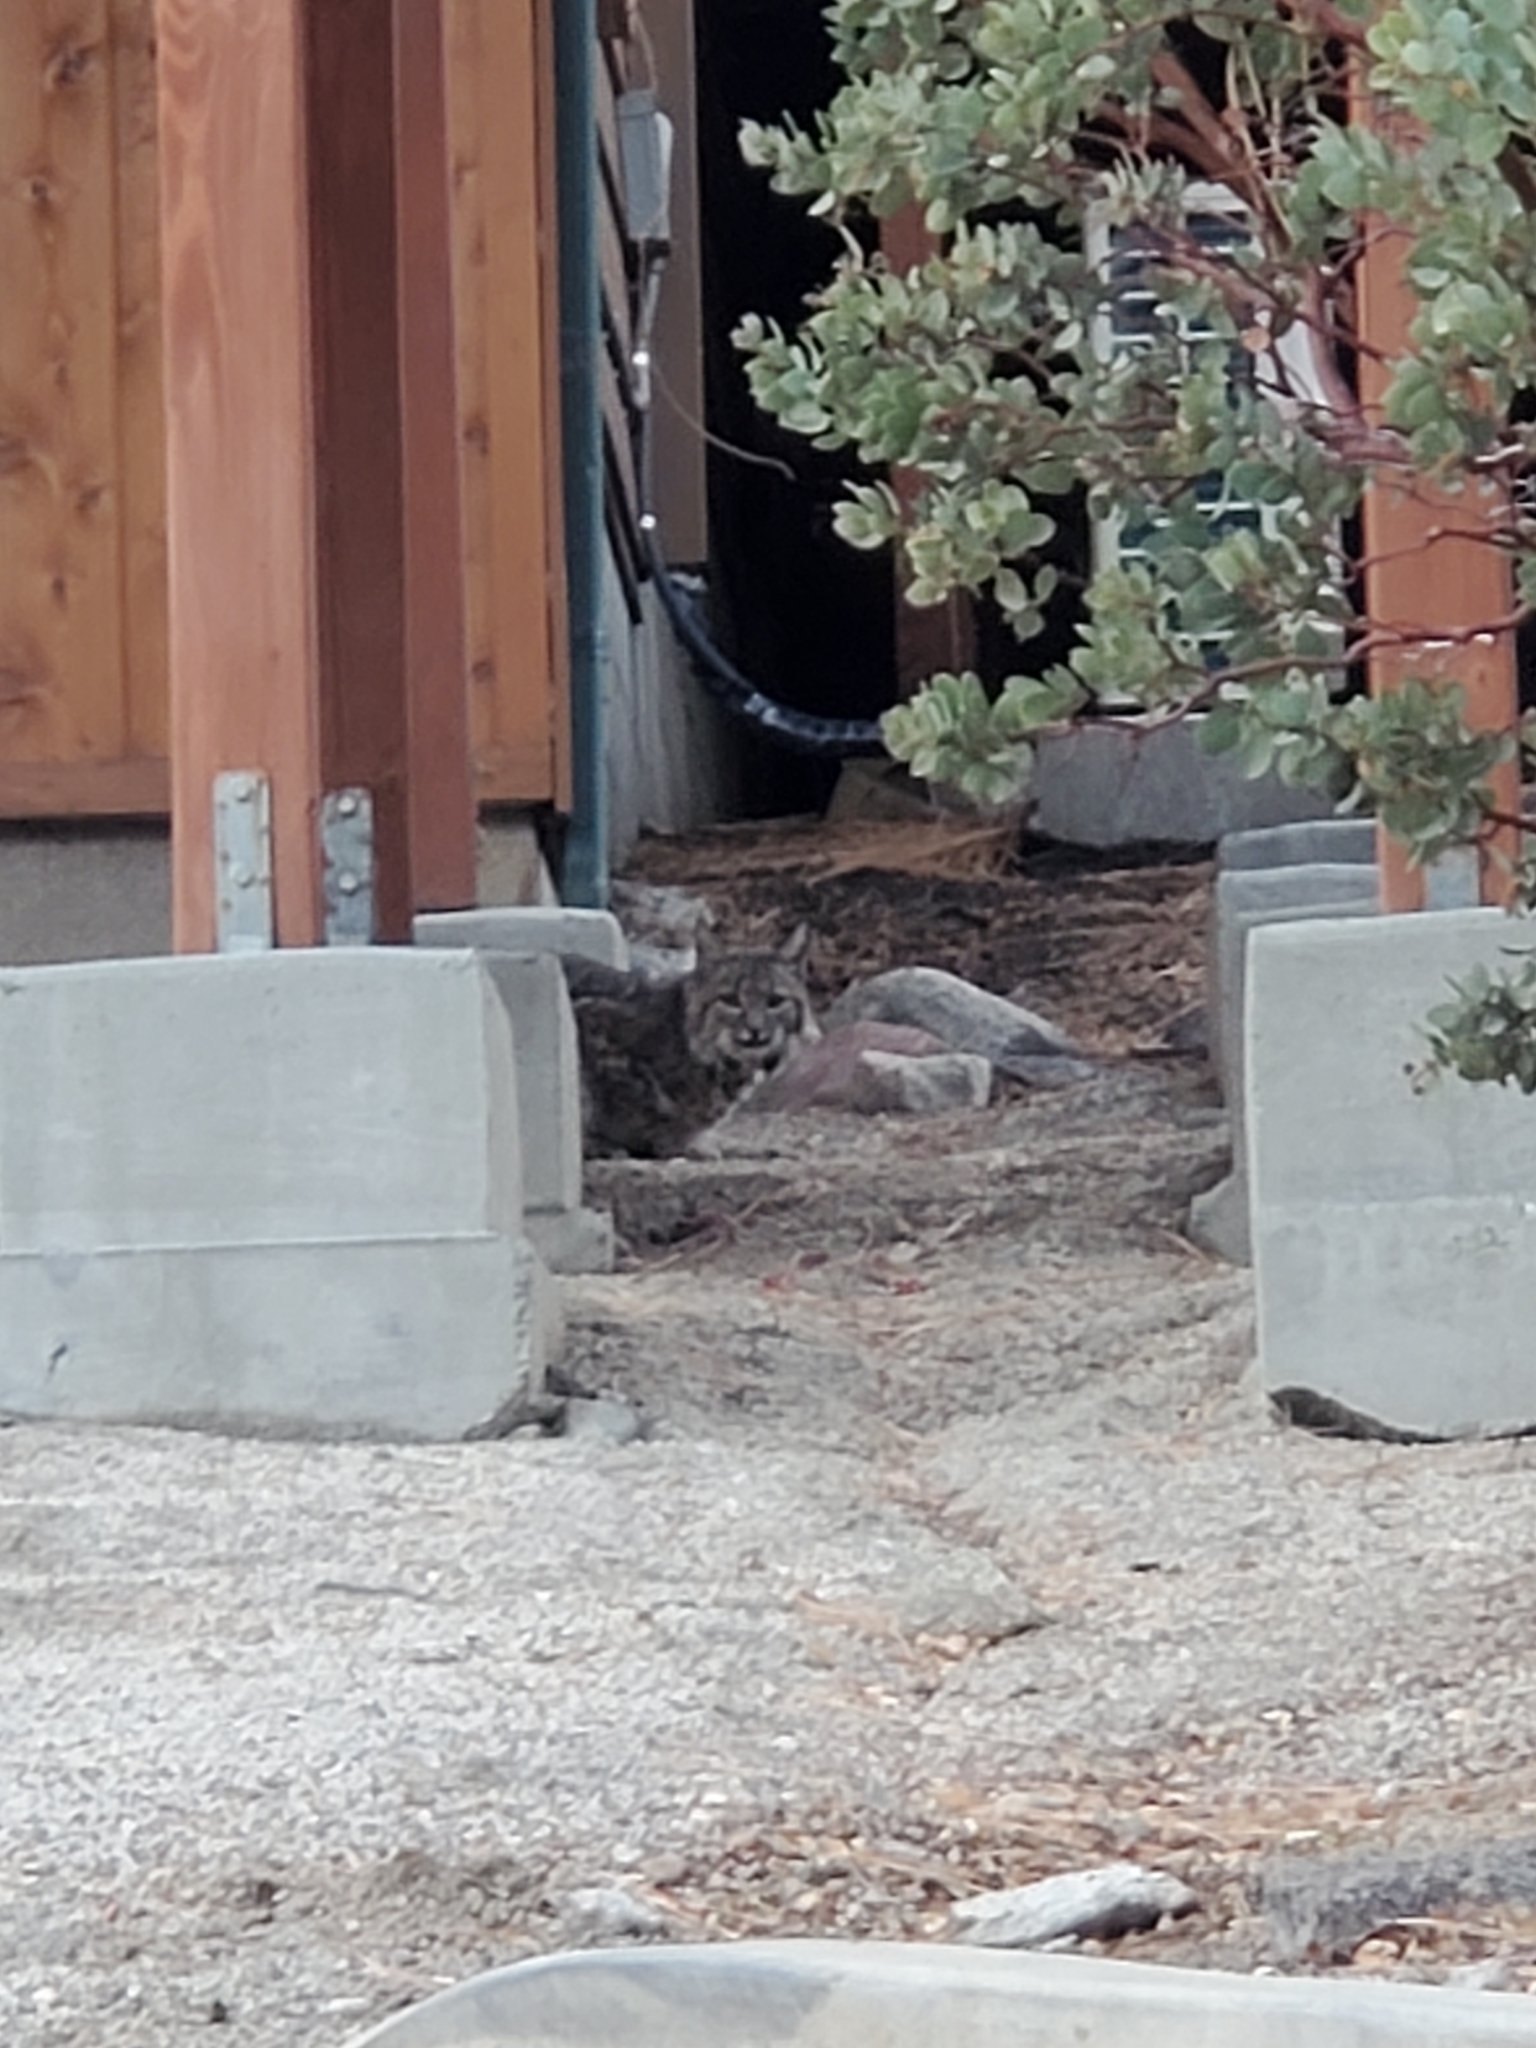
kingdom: Animalia
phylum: Chordata
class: Mammalia
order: Carnivora
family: Felidae
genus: Lynx
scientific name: Lynx rufus
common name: Bobcat
